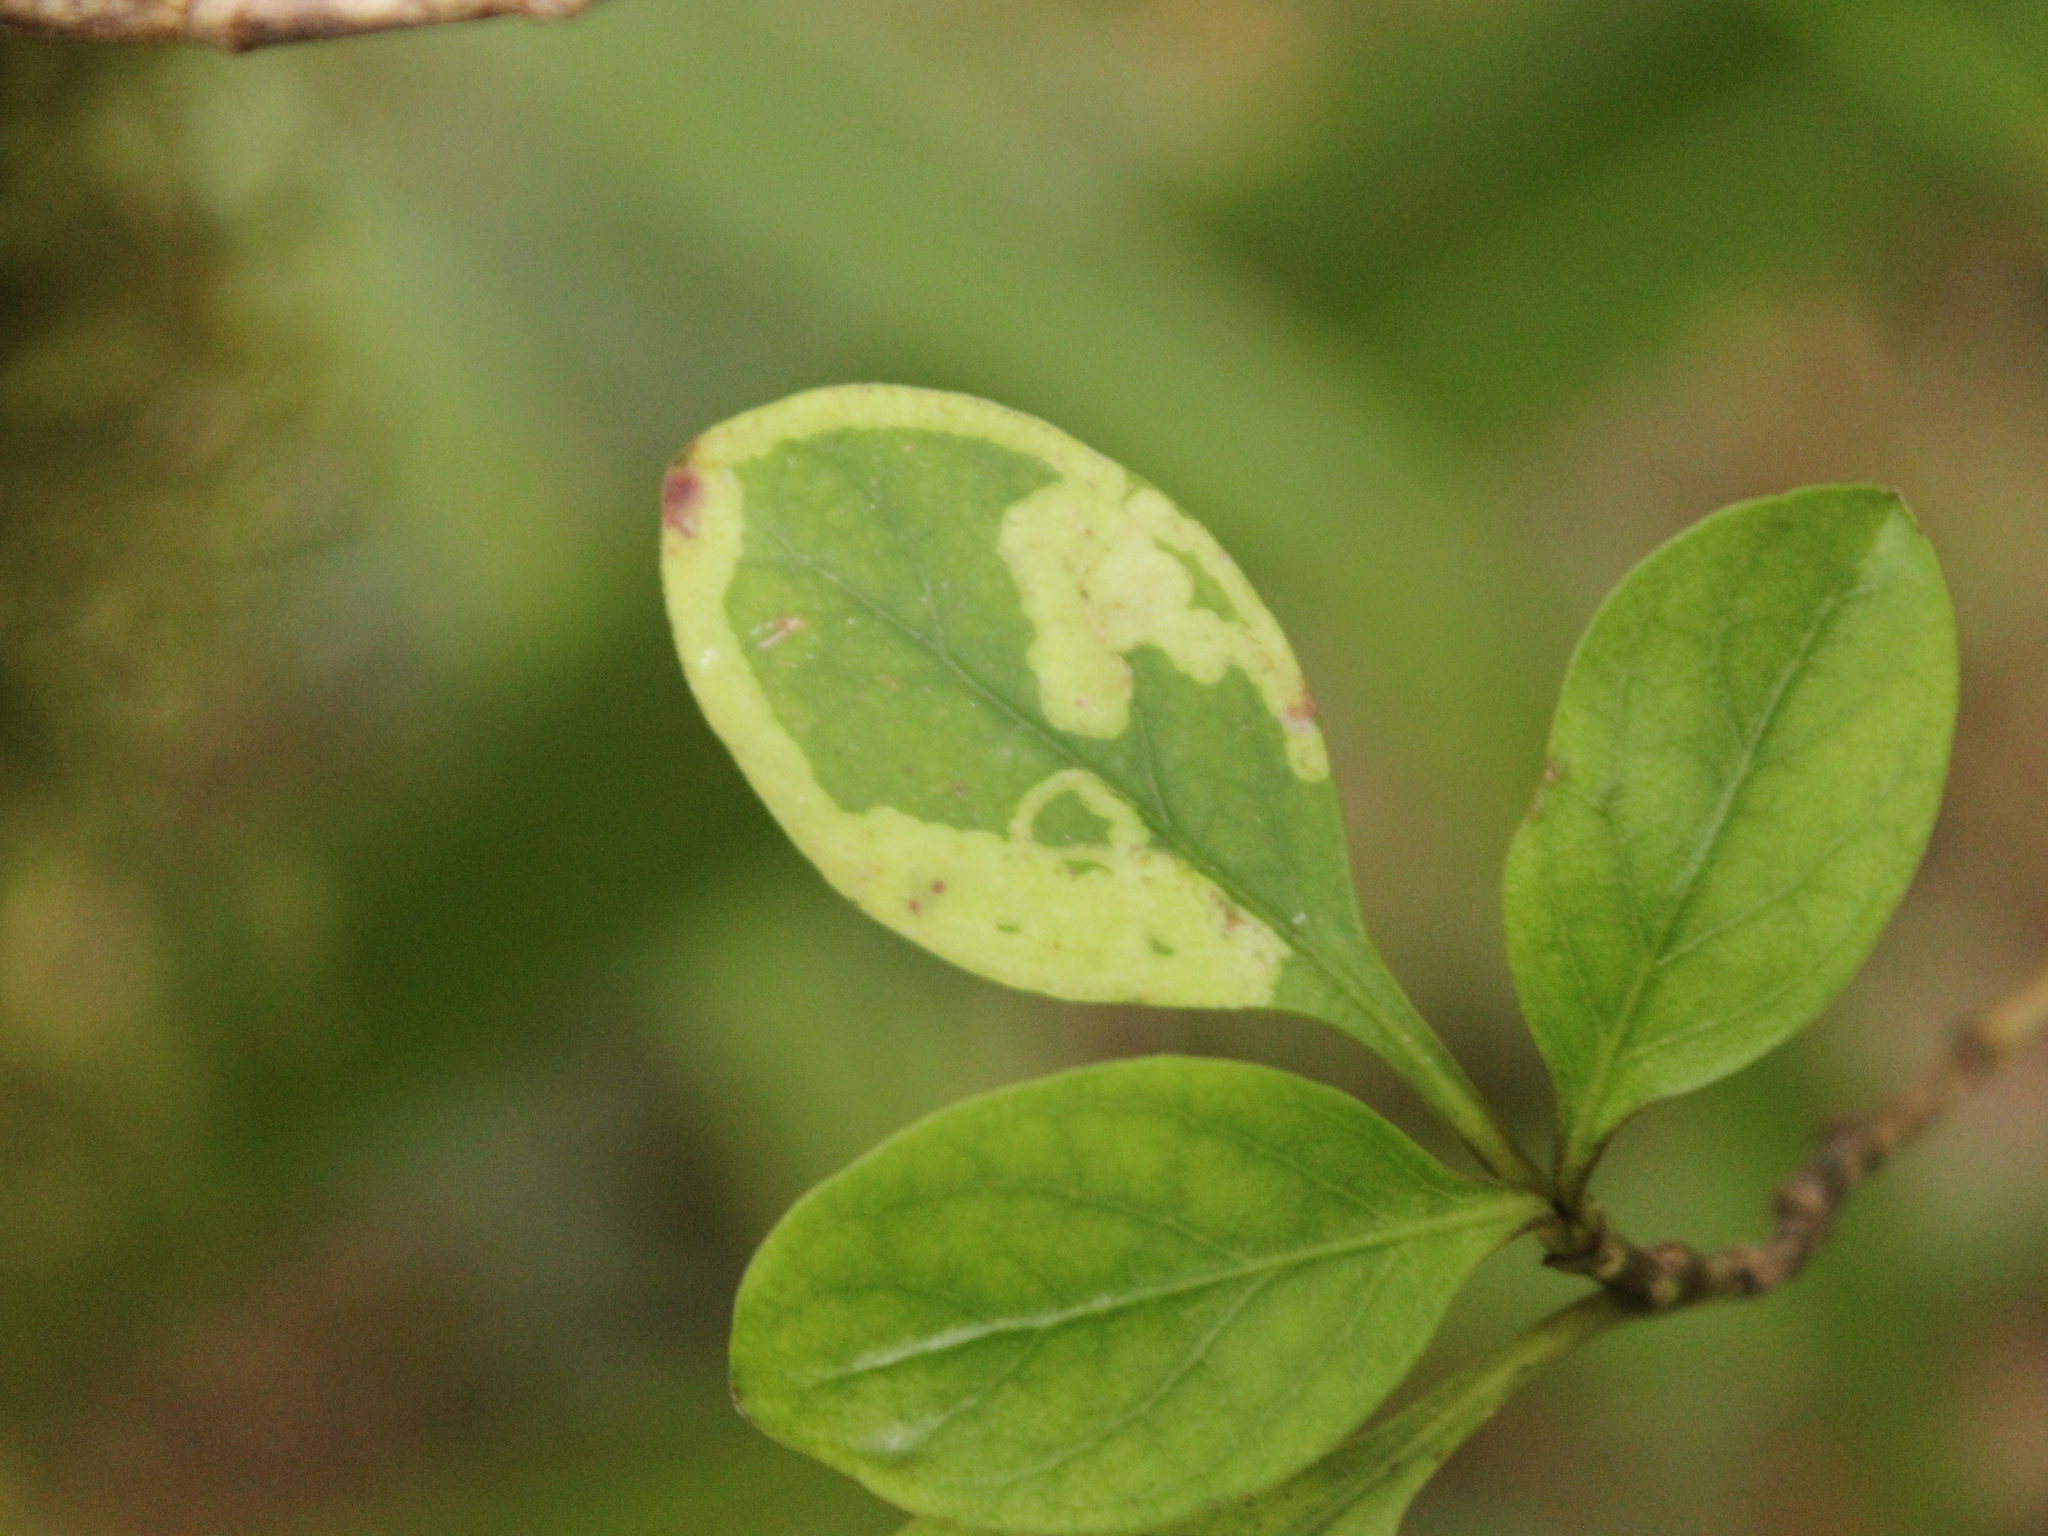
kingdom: Animalia
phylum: Arthropoda
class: Insecta
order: Lepidoptera
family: Gracillariidae
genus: Corythoxestis
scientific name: Corythoxestis zorionella
